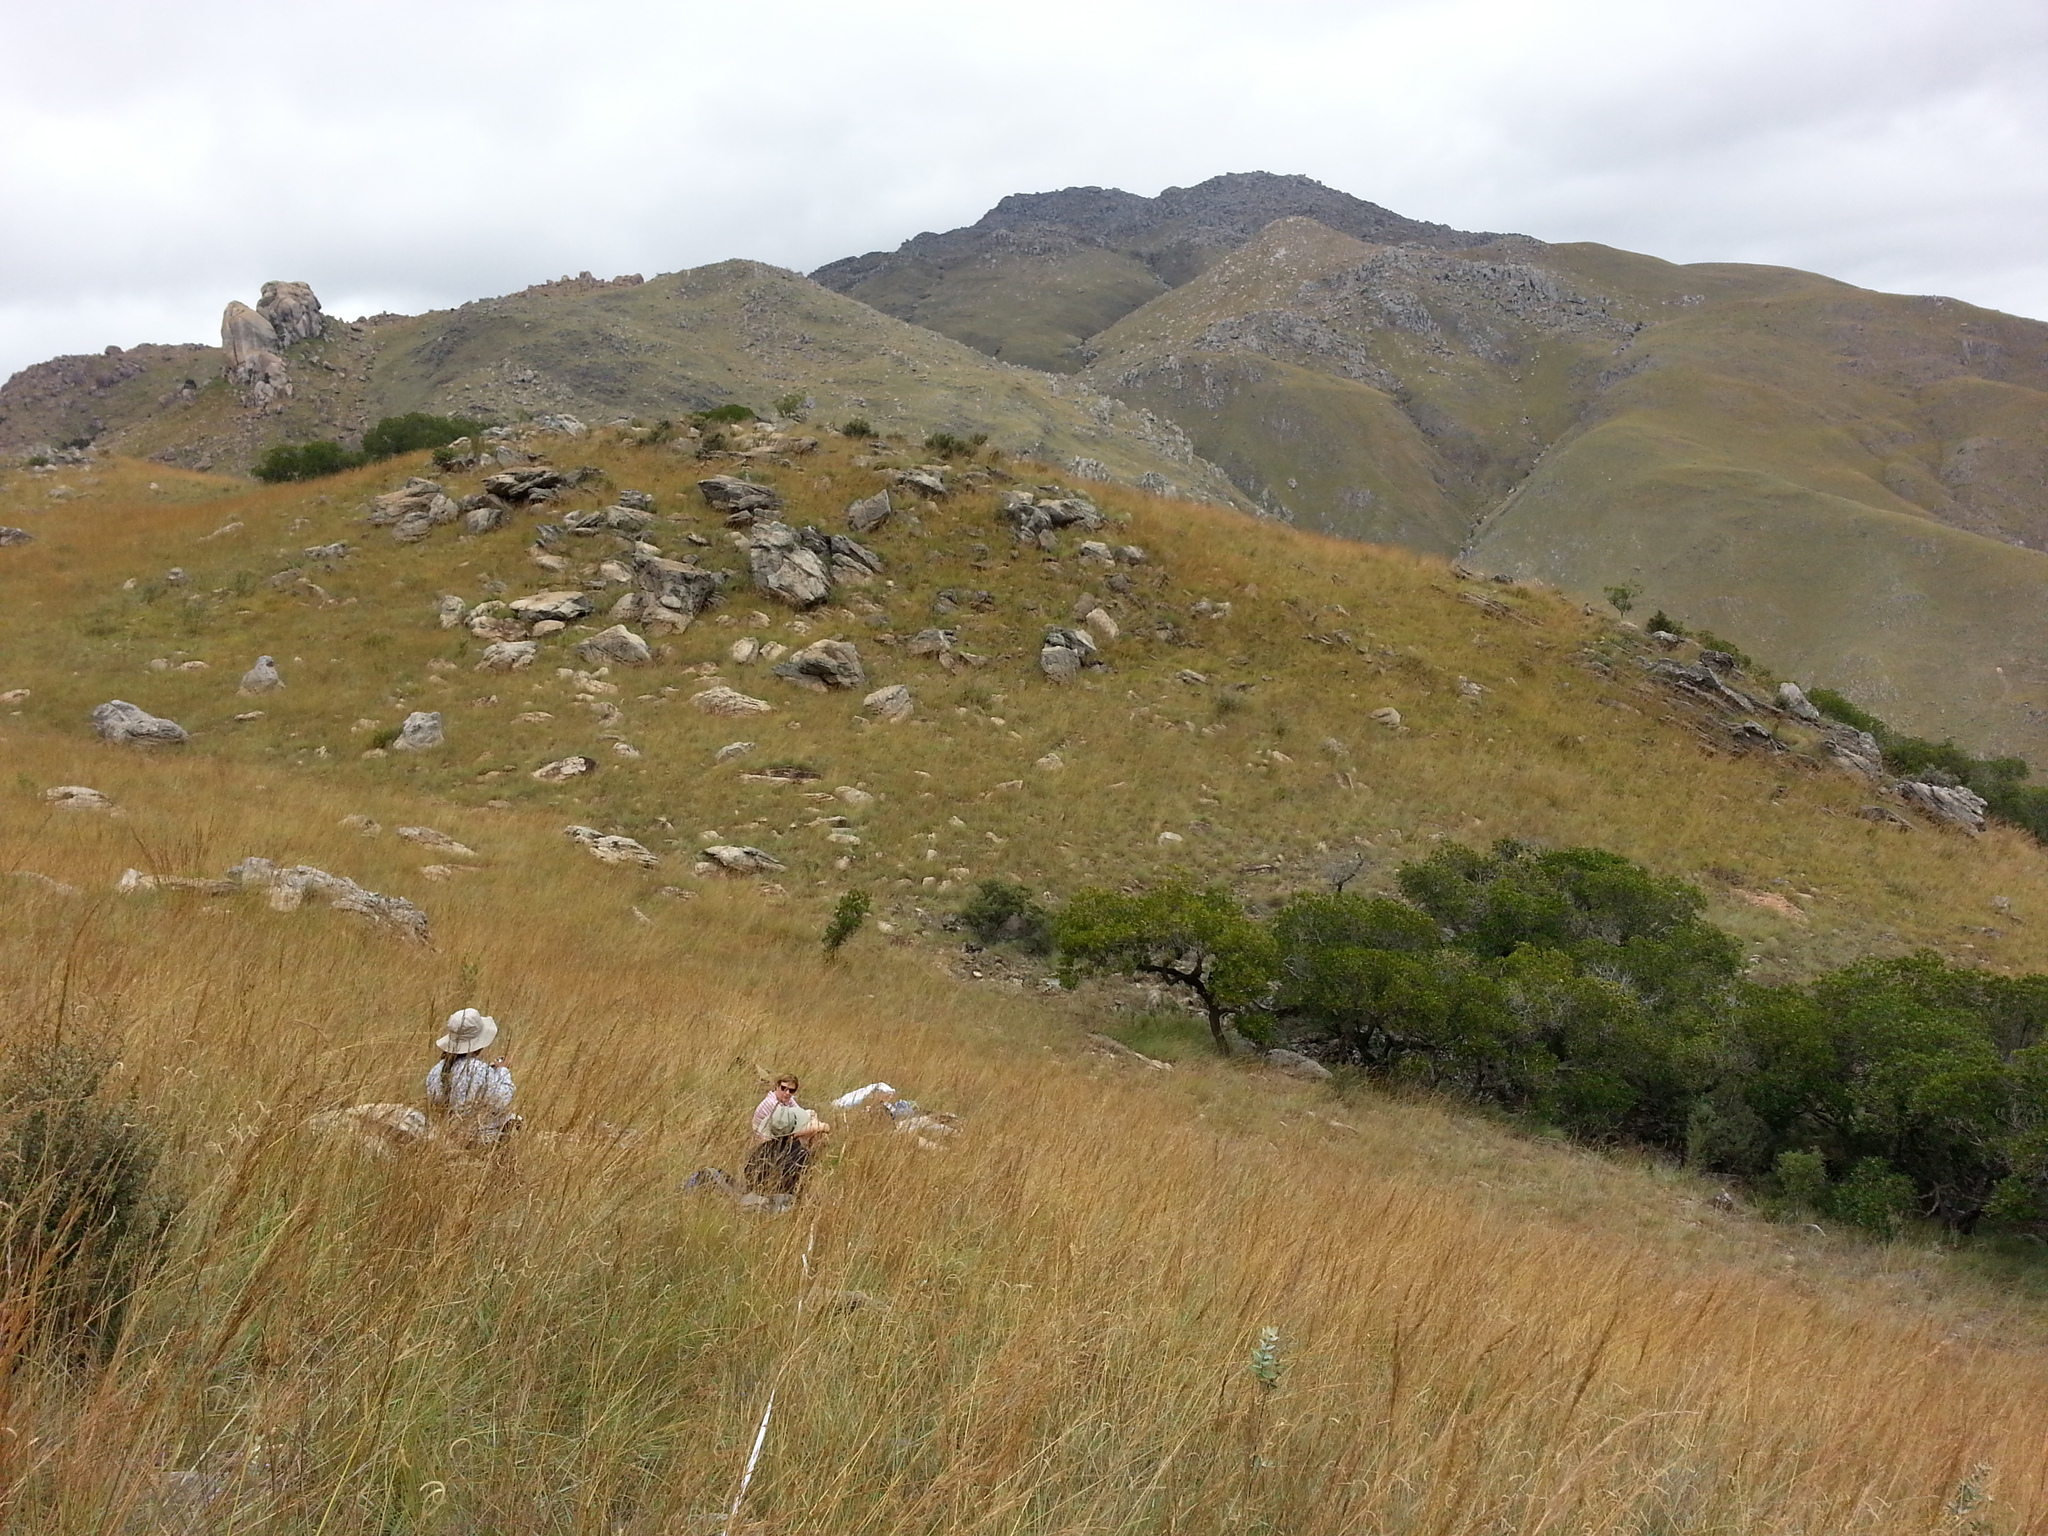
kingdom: Plantae
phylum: Tracheophyta
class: Liliopsida
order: Poales
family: Poaceae
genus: Loudetia
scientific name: Loudetia simplex
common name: Common russet grass
